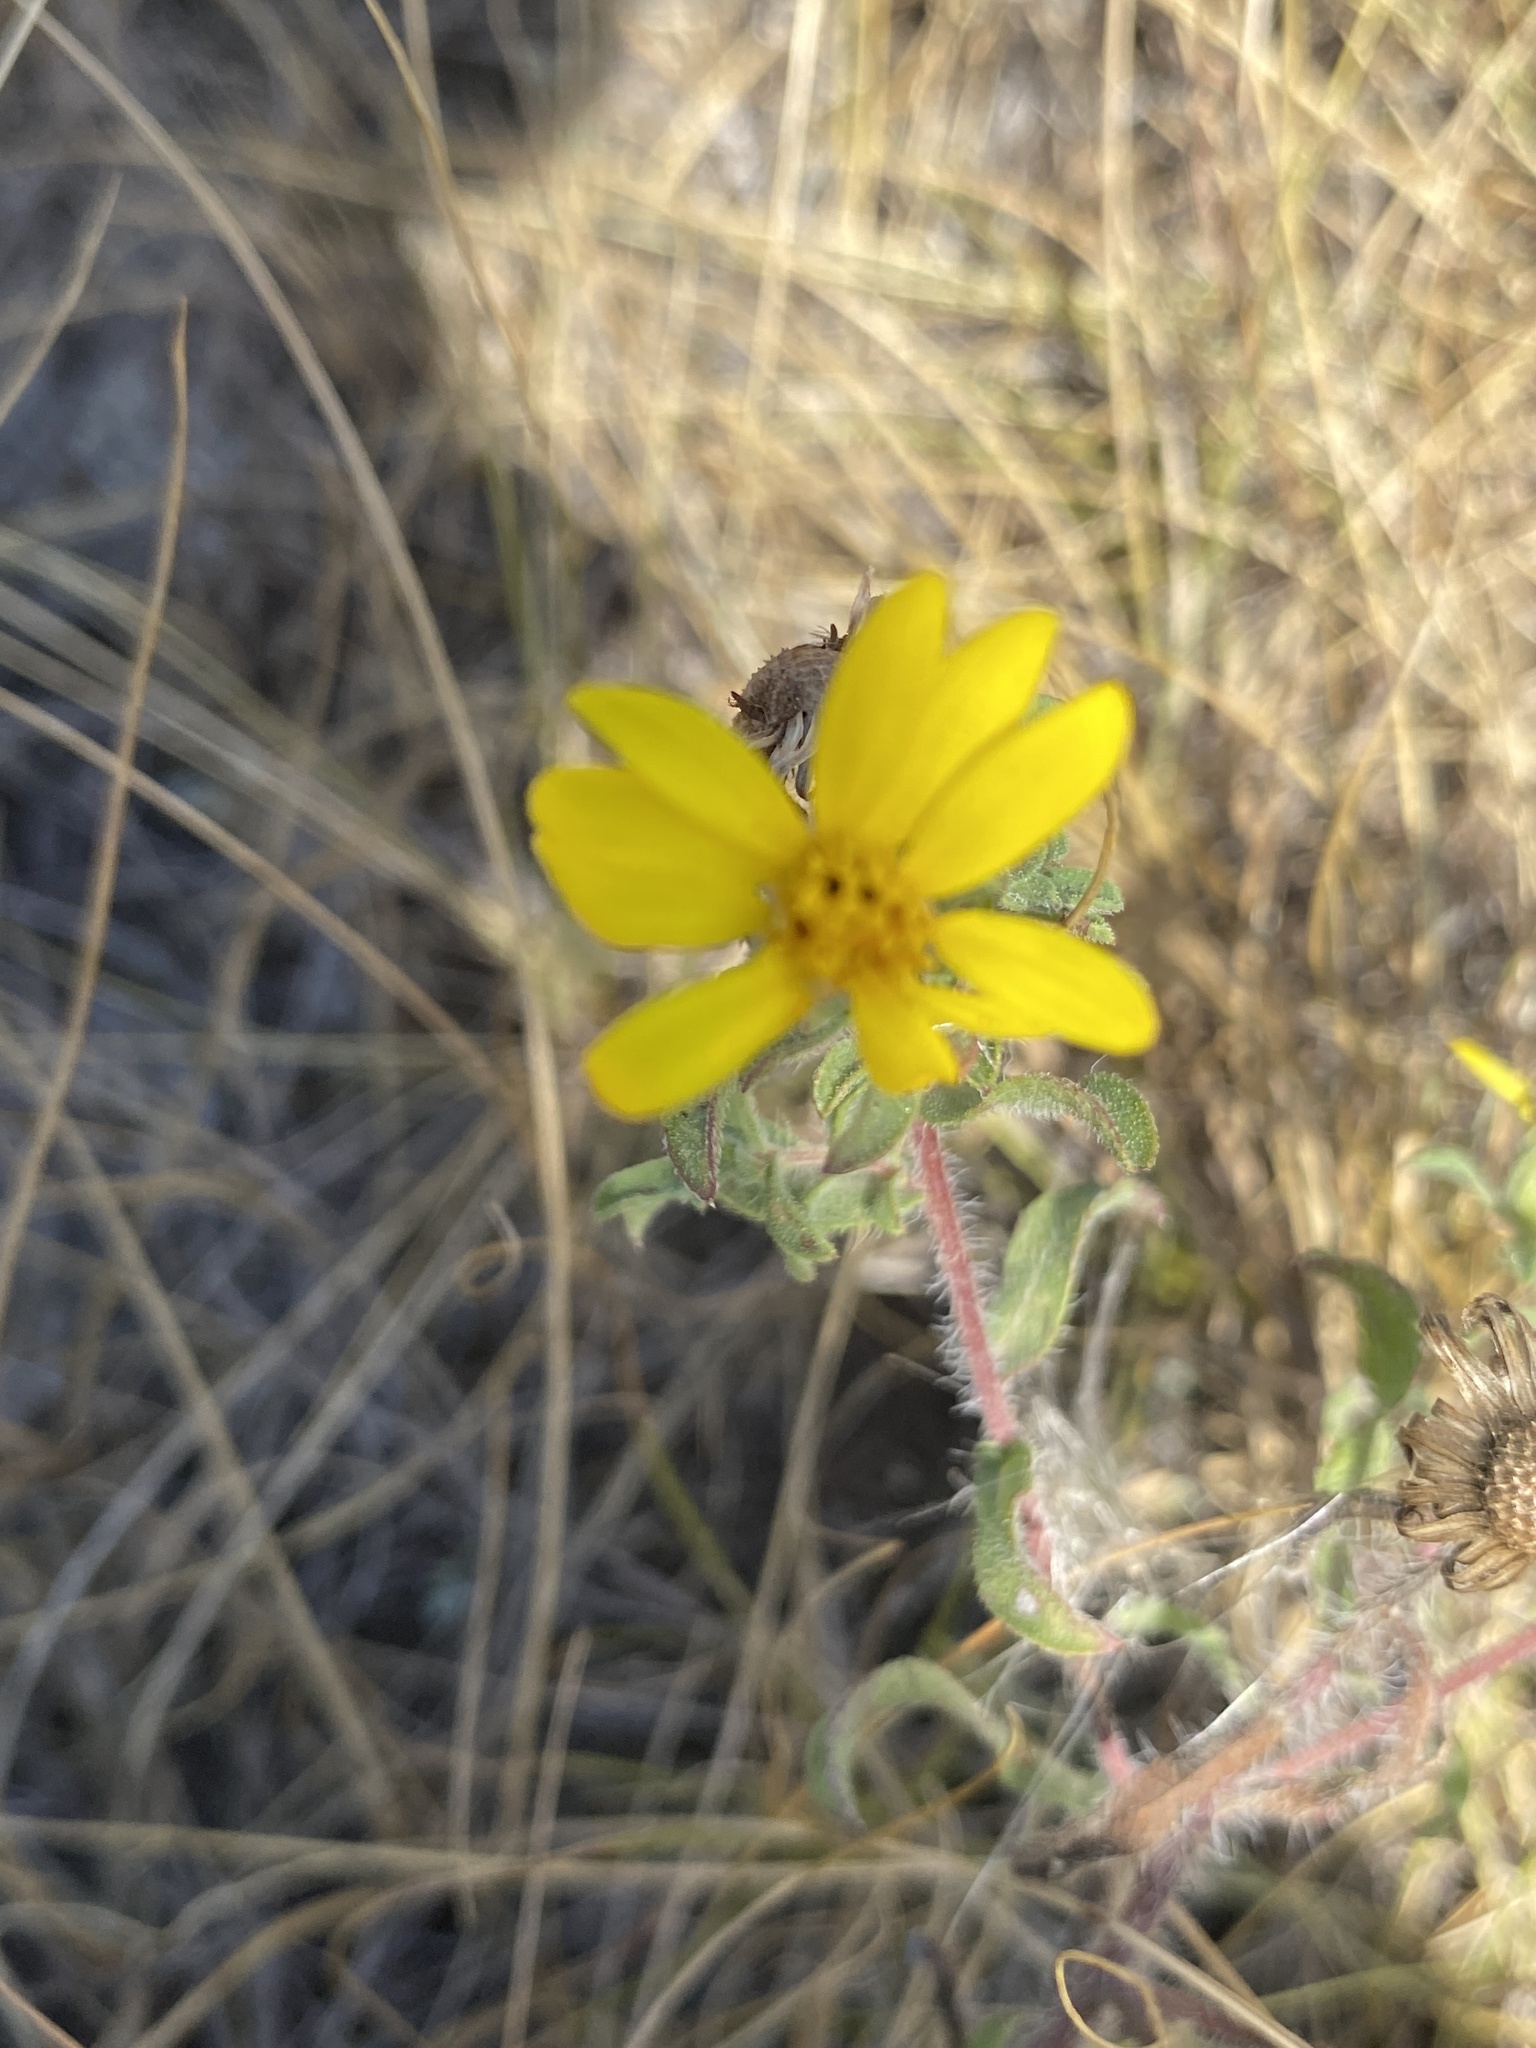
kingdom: Plantae
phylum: Tracheophyta
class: Magnoliopsida
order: Asterales
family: Asteraceae
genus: Heterotheca
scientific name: Heterotheca villosa
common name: Hairy false goldenaster
